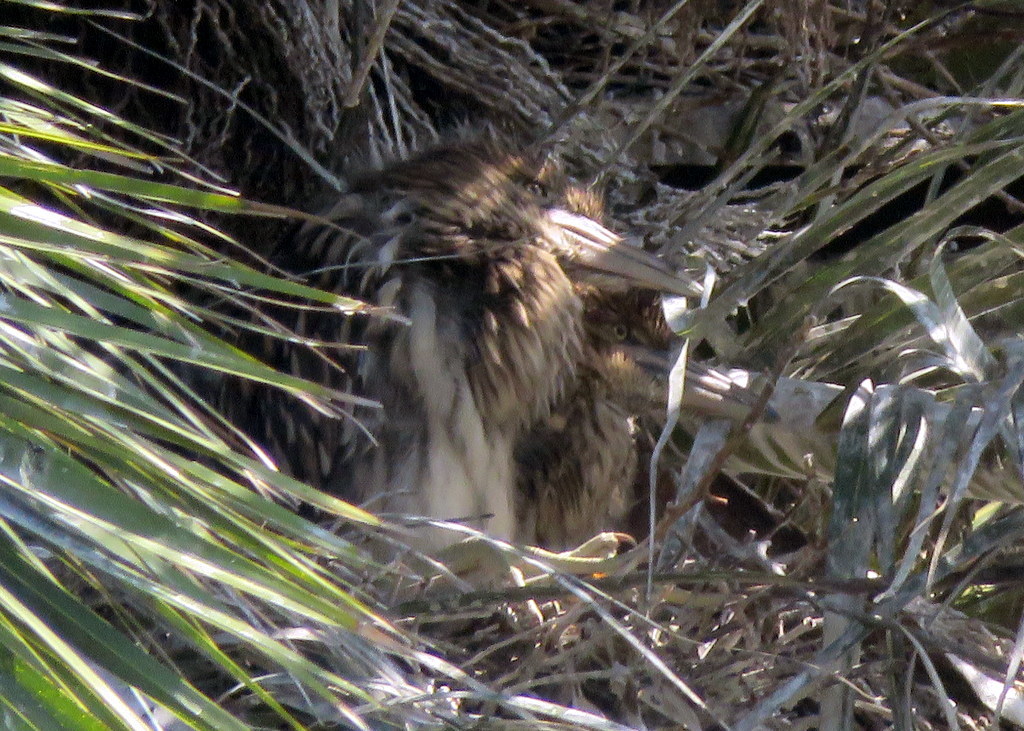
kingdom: Animalia
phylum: Chordata
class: Aves
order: Pelecaniformes
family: Ardeidae
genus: Nycticorax
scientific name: Nycticorax nycticorax
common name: Black-crowned night heron
